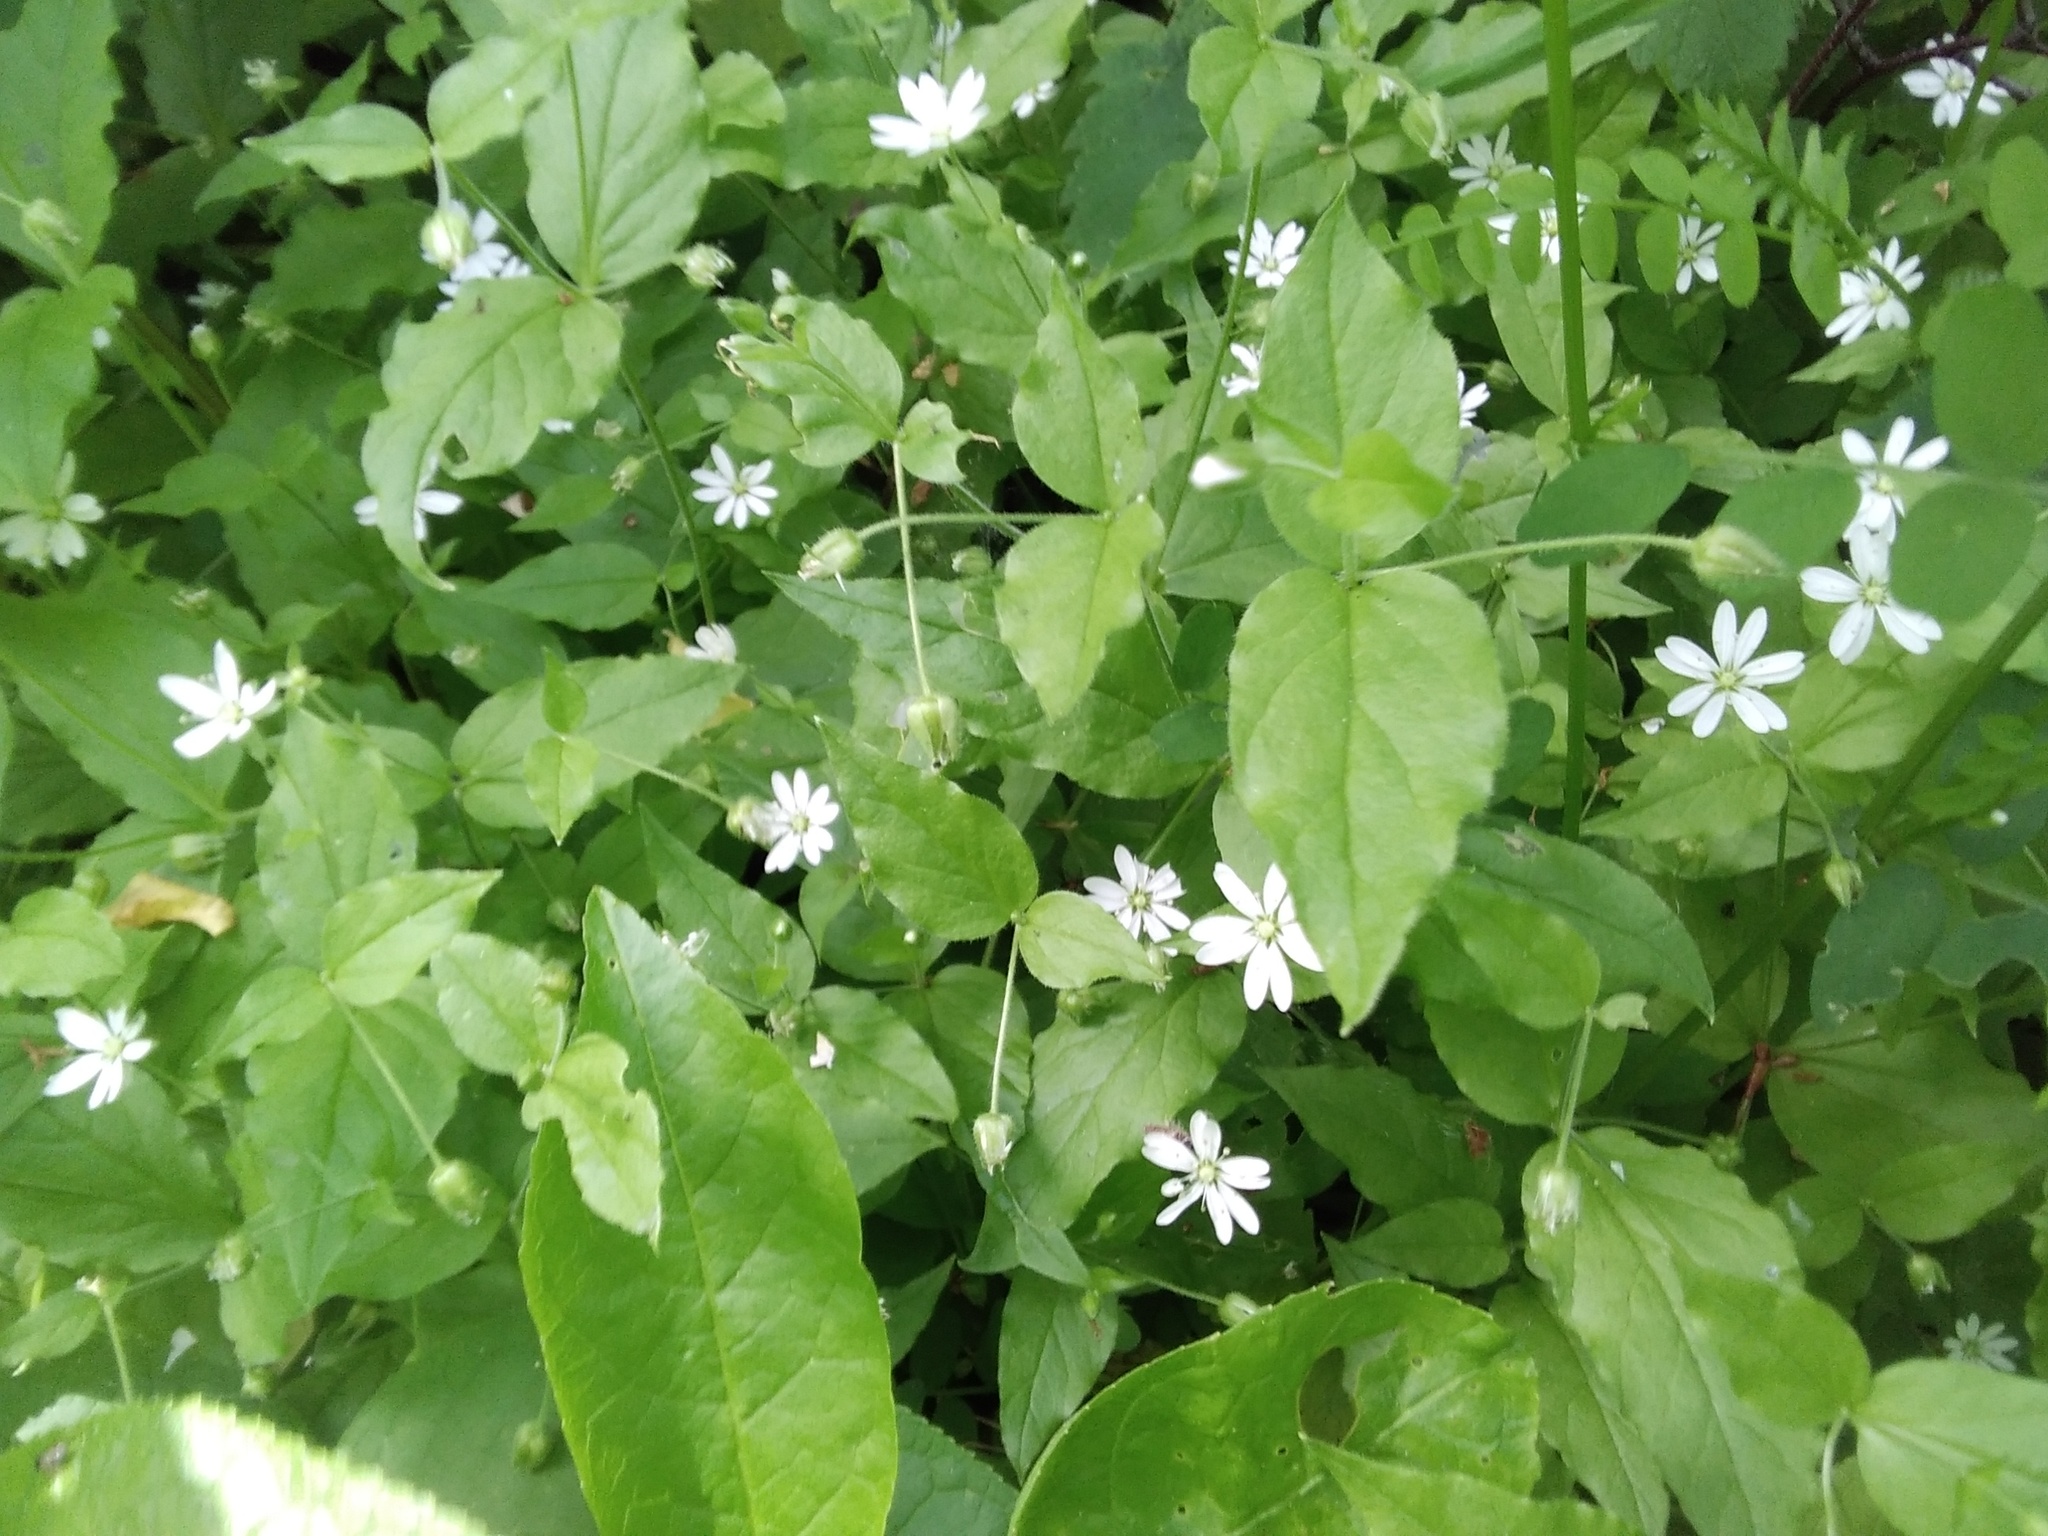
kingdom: Plantae
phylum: Tracheophyta
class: Magnoliopsida
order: Caryophyllales
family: Caryophyllaceae
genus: Stellaria
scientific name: Stellaria bungeana
